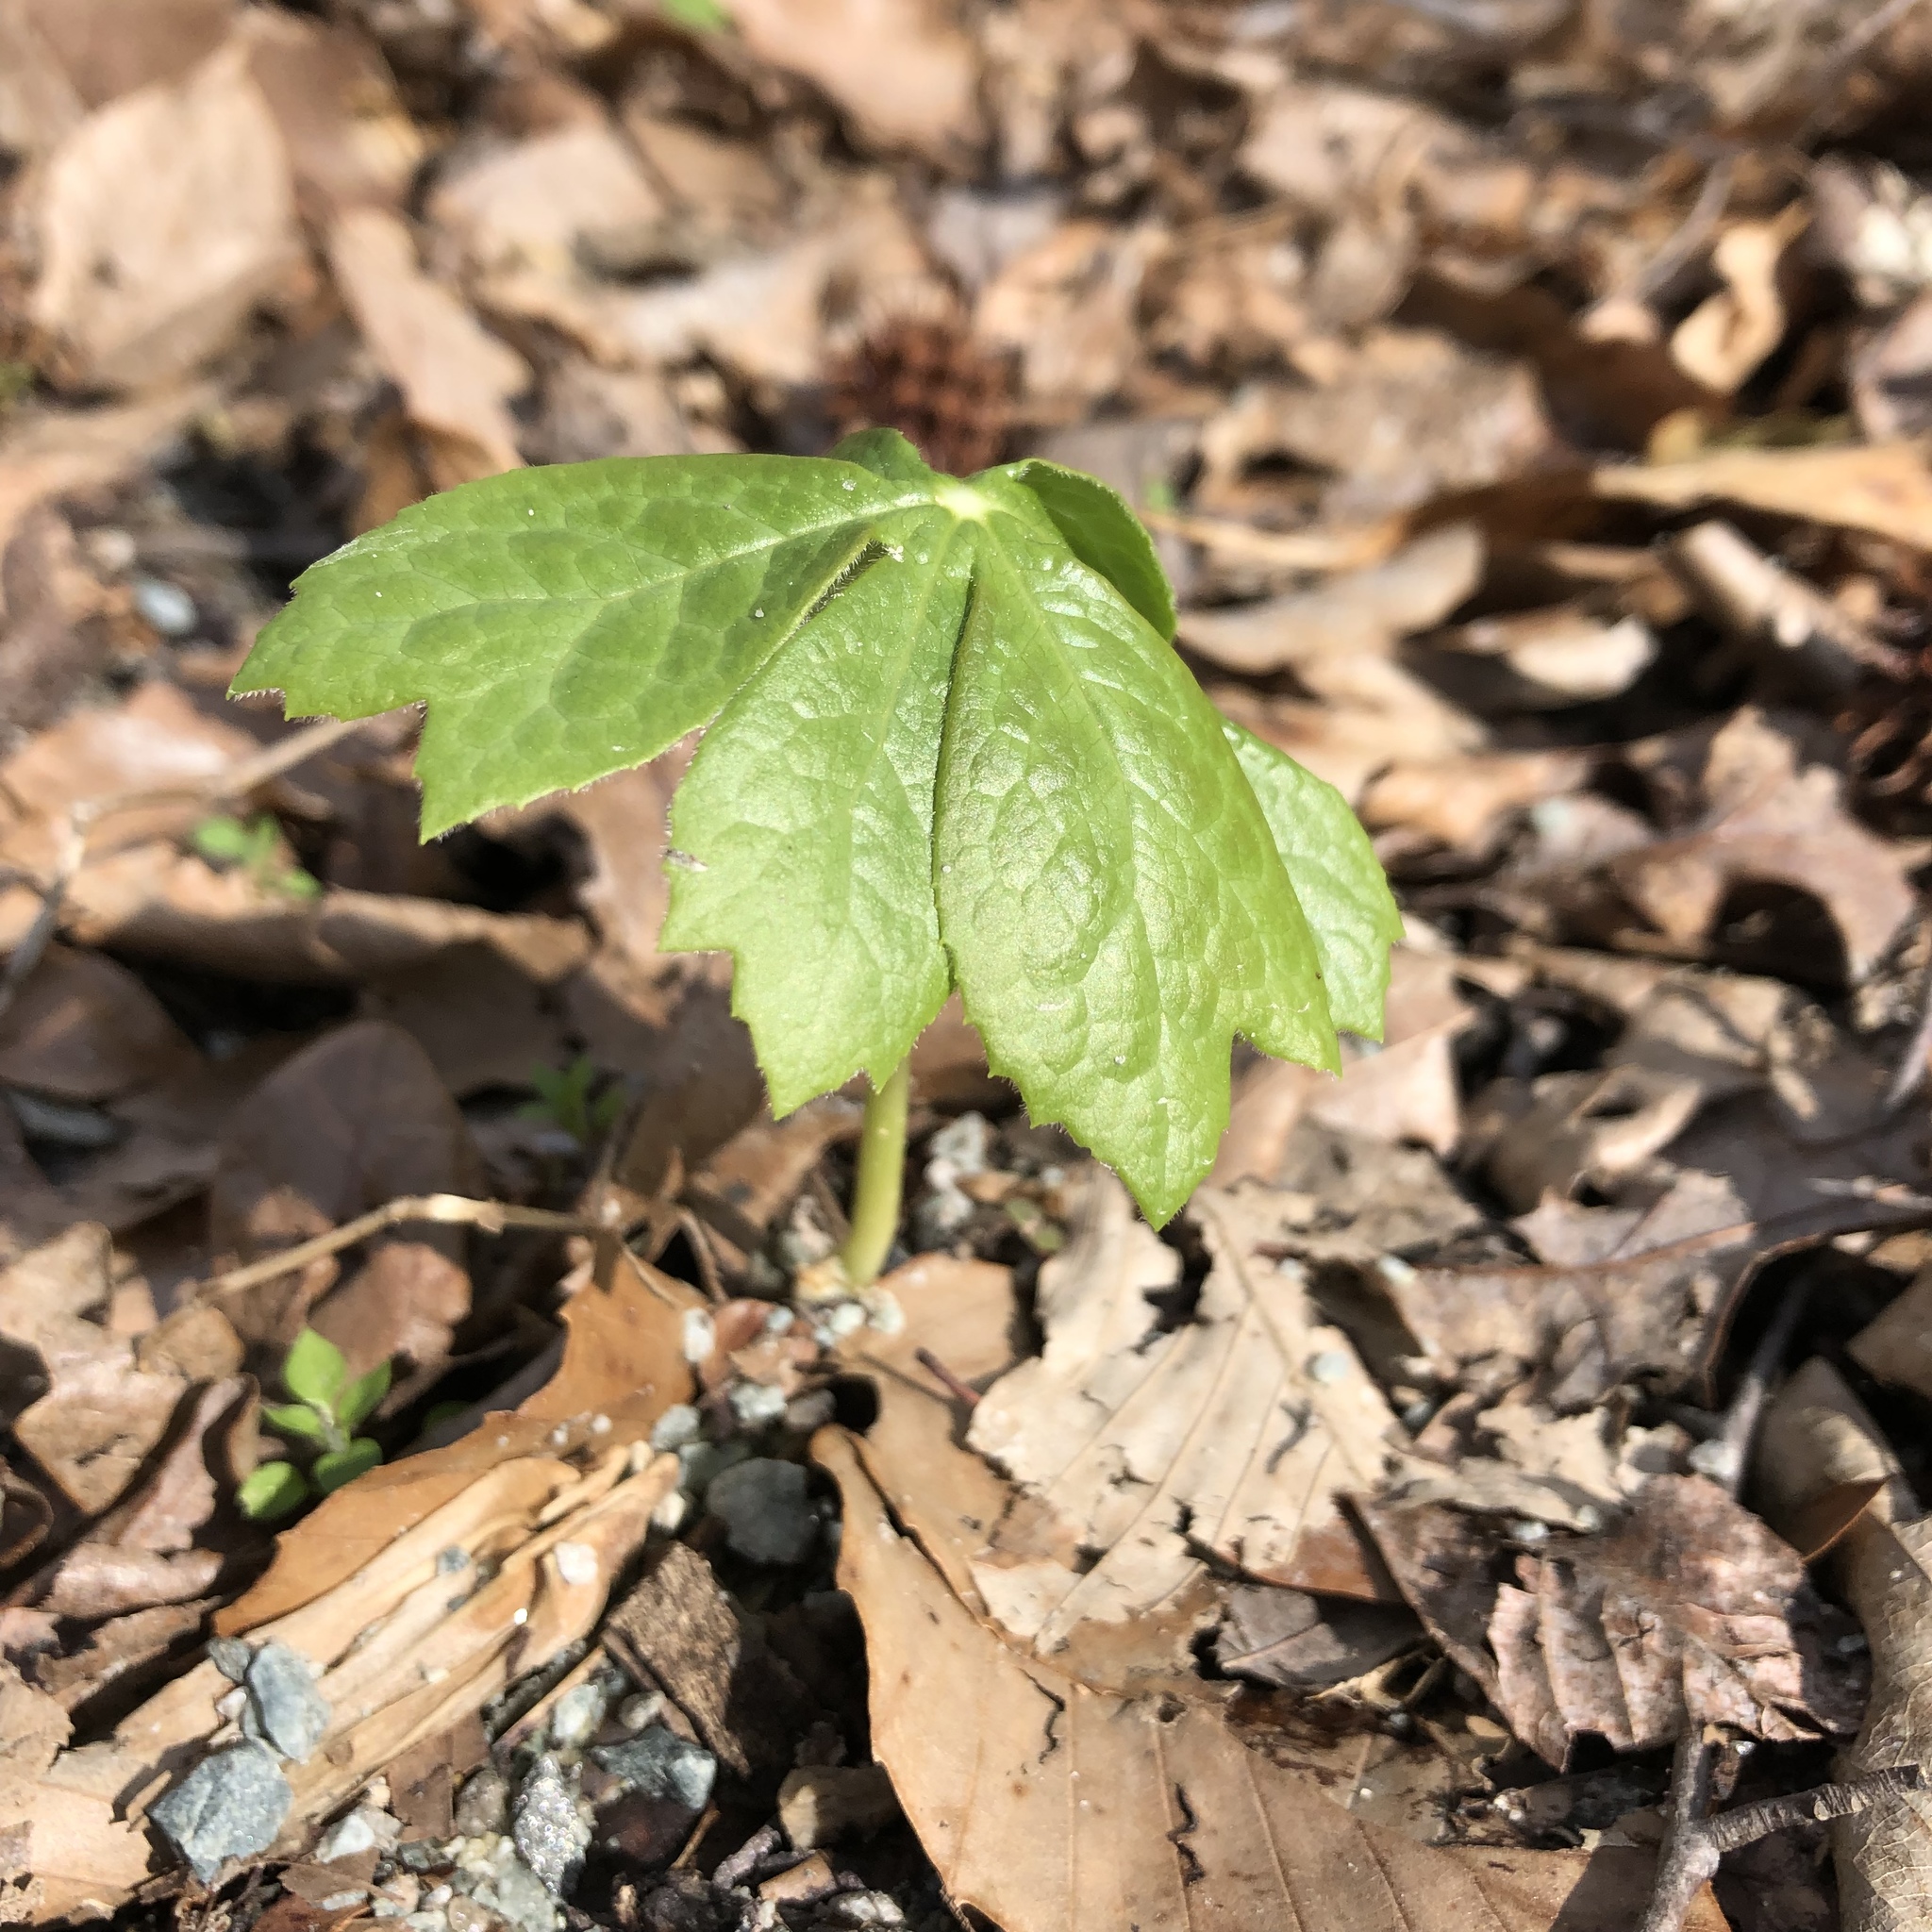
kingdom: Plantae
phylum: Tracheophyta
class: Magnoliopsida
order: Ranunculales
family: Berberidaceae
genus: Podophyllum
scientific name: Podophyllum peltatum
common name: Wild mandrake
